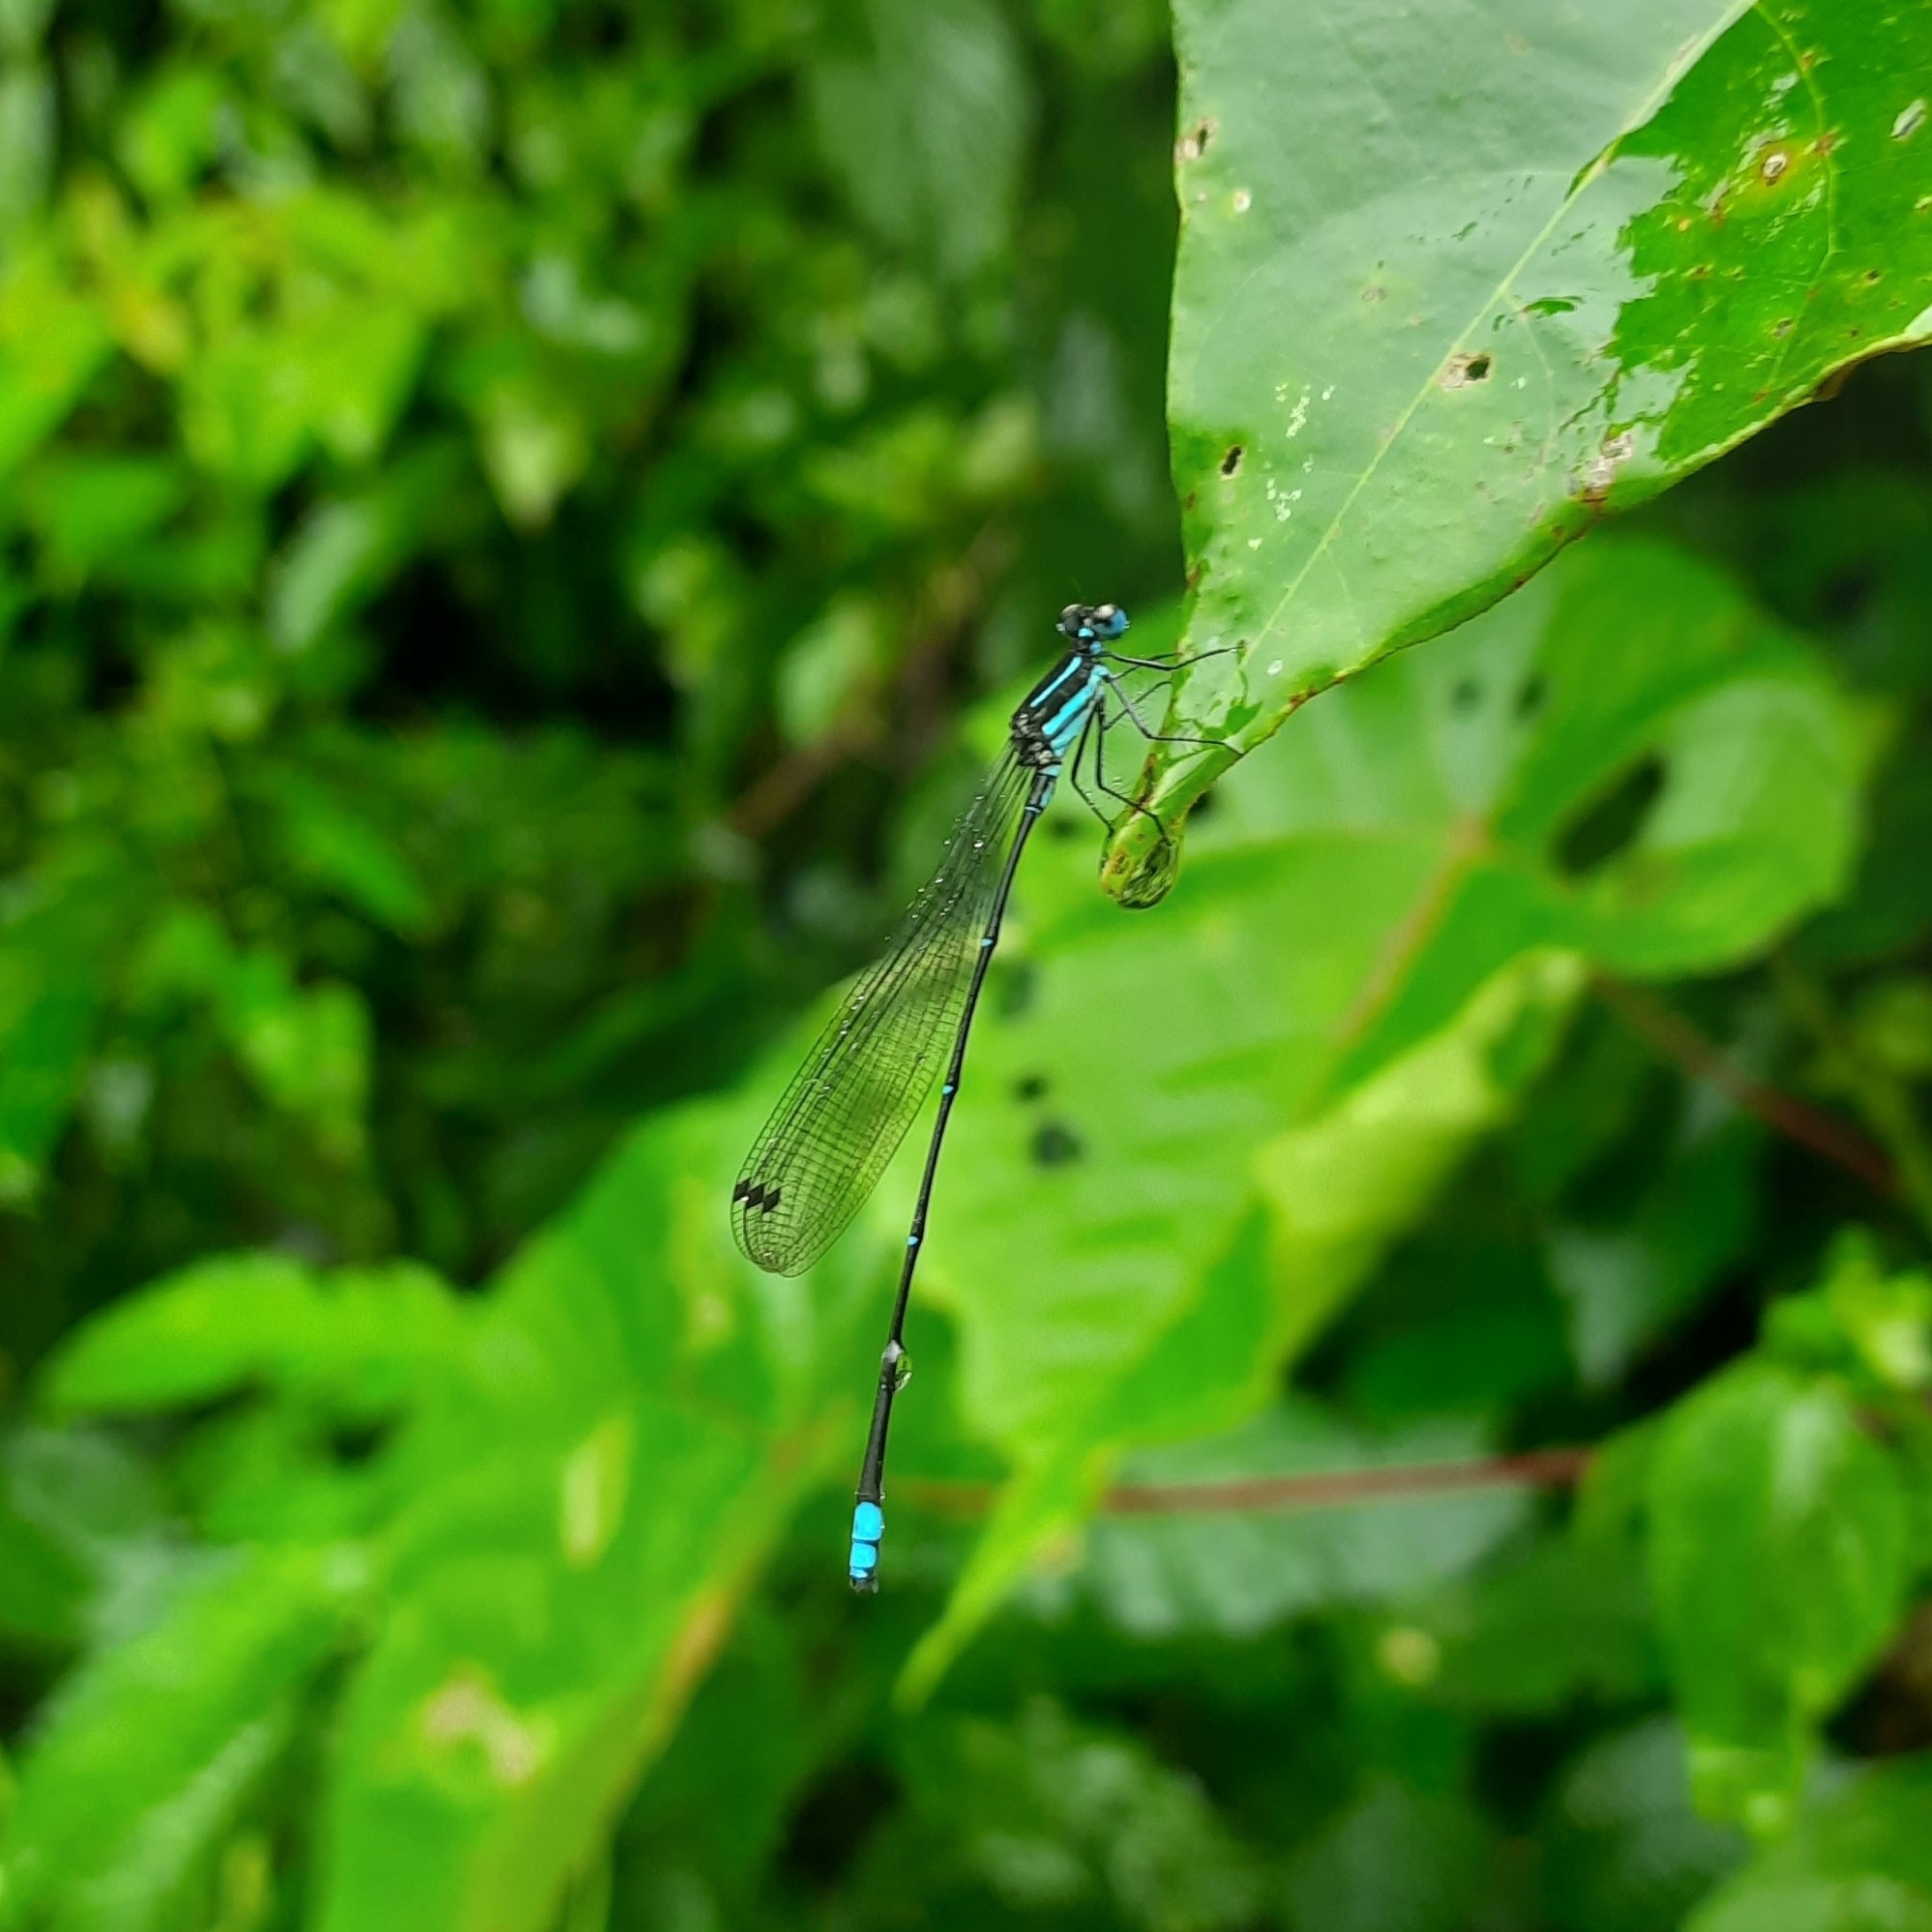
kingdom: Animalia
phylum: Arthropoda
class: Insecta
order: Odonata
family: Platycnemididae
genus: Caconeura
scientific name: Caconeura ramburi
